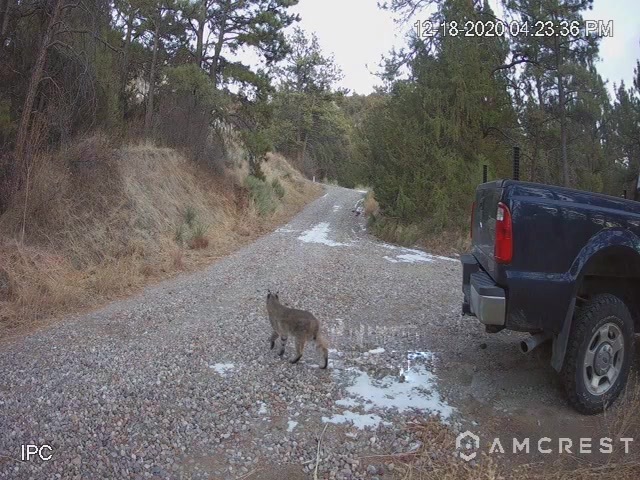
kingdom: Animalia
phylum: Chordata
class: Mammalia
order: Carnivora
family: Felidae
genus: Lynx
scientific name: Lynx rufus
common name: Bobcat
